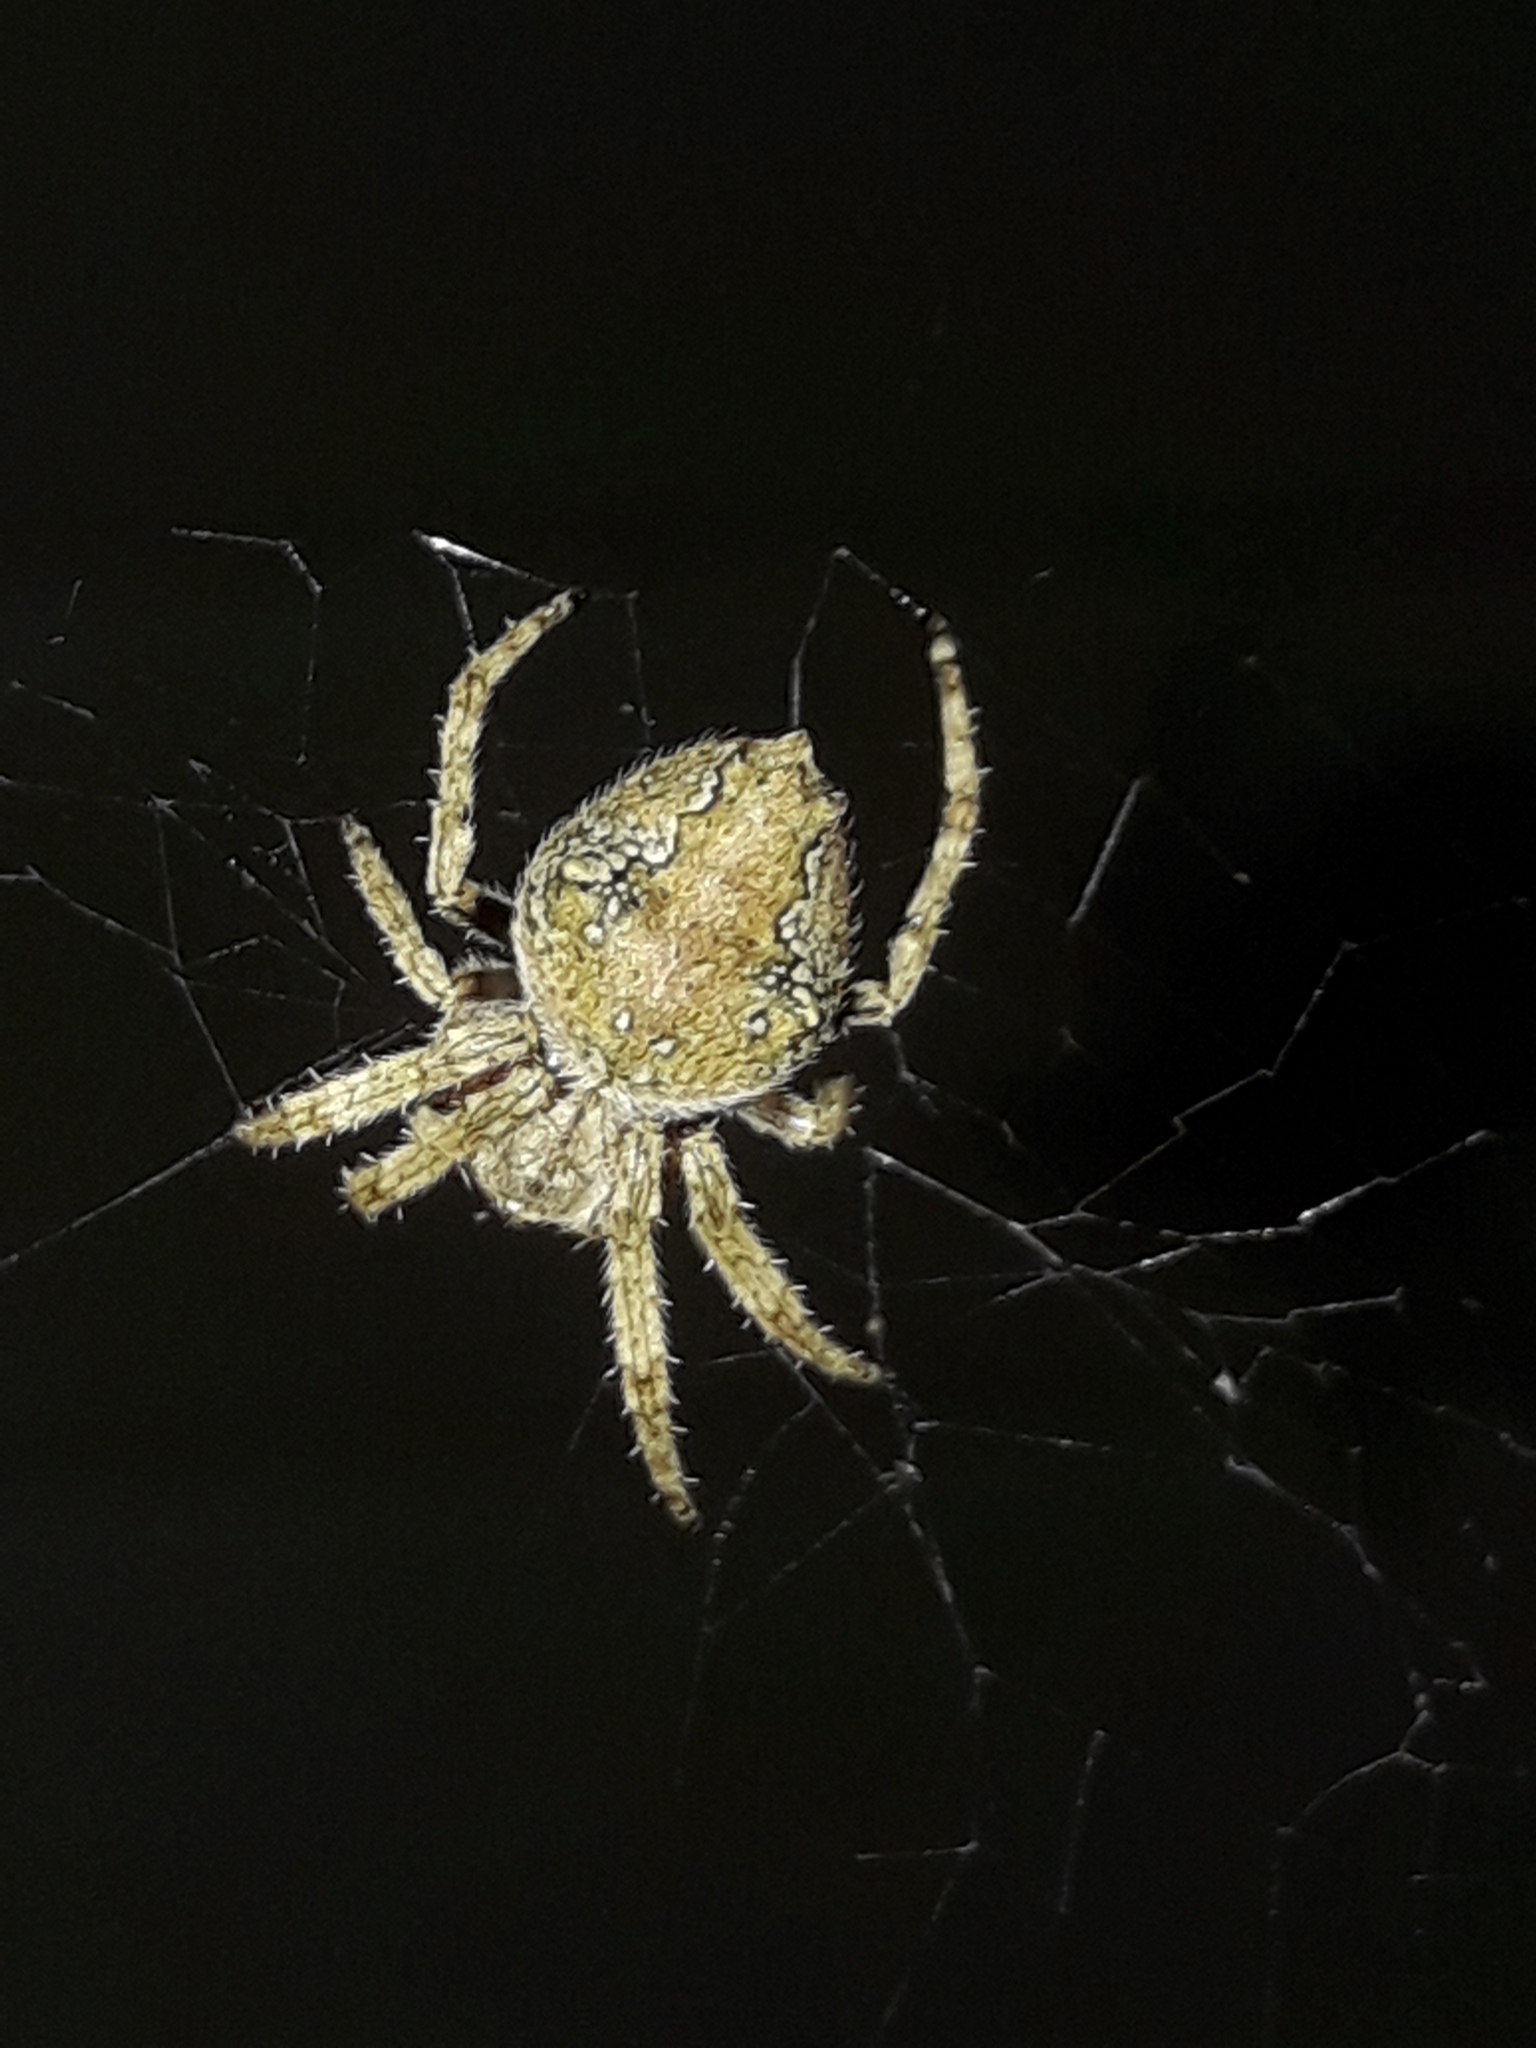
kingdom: Animalia
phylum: Arthropoda
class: Arachnida
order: Araneae
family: Araneidae
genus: Eriophora
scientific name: Eriophora pustulosa
